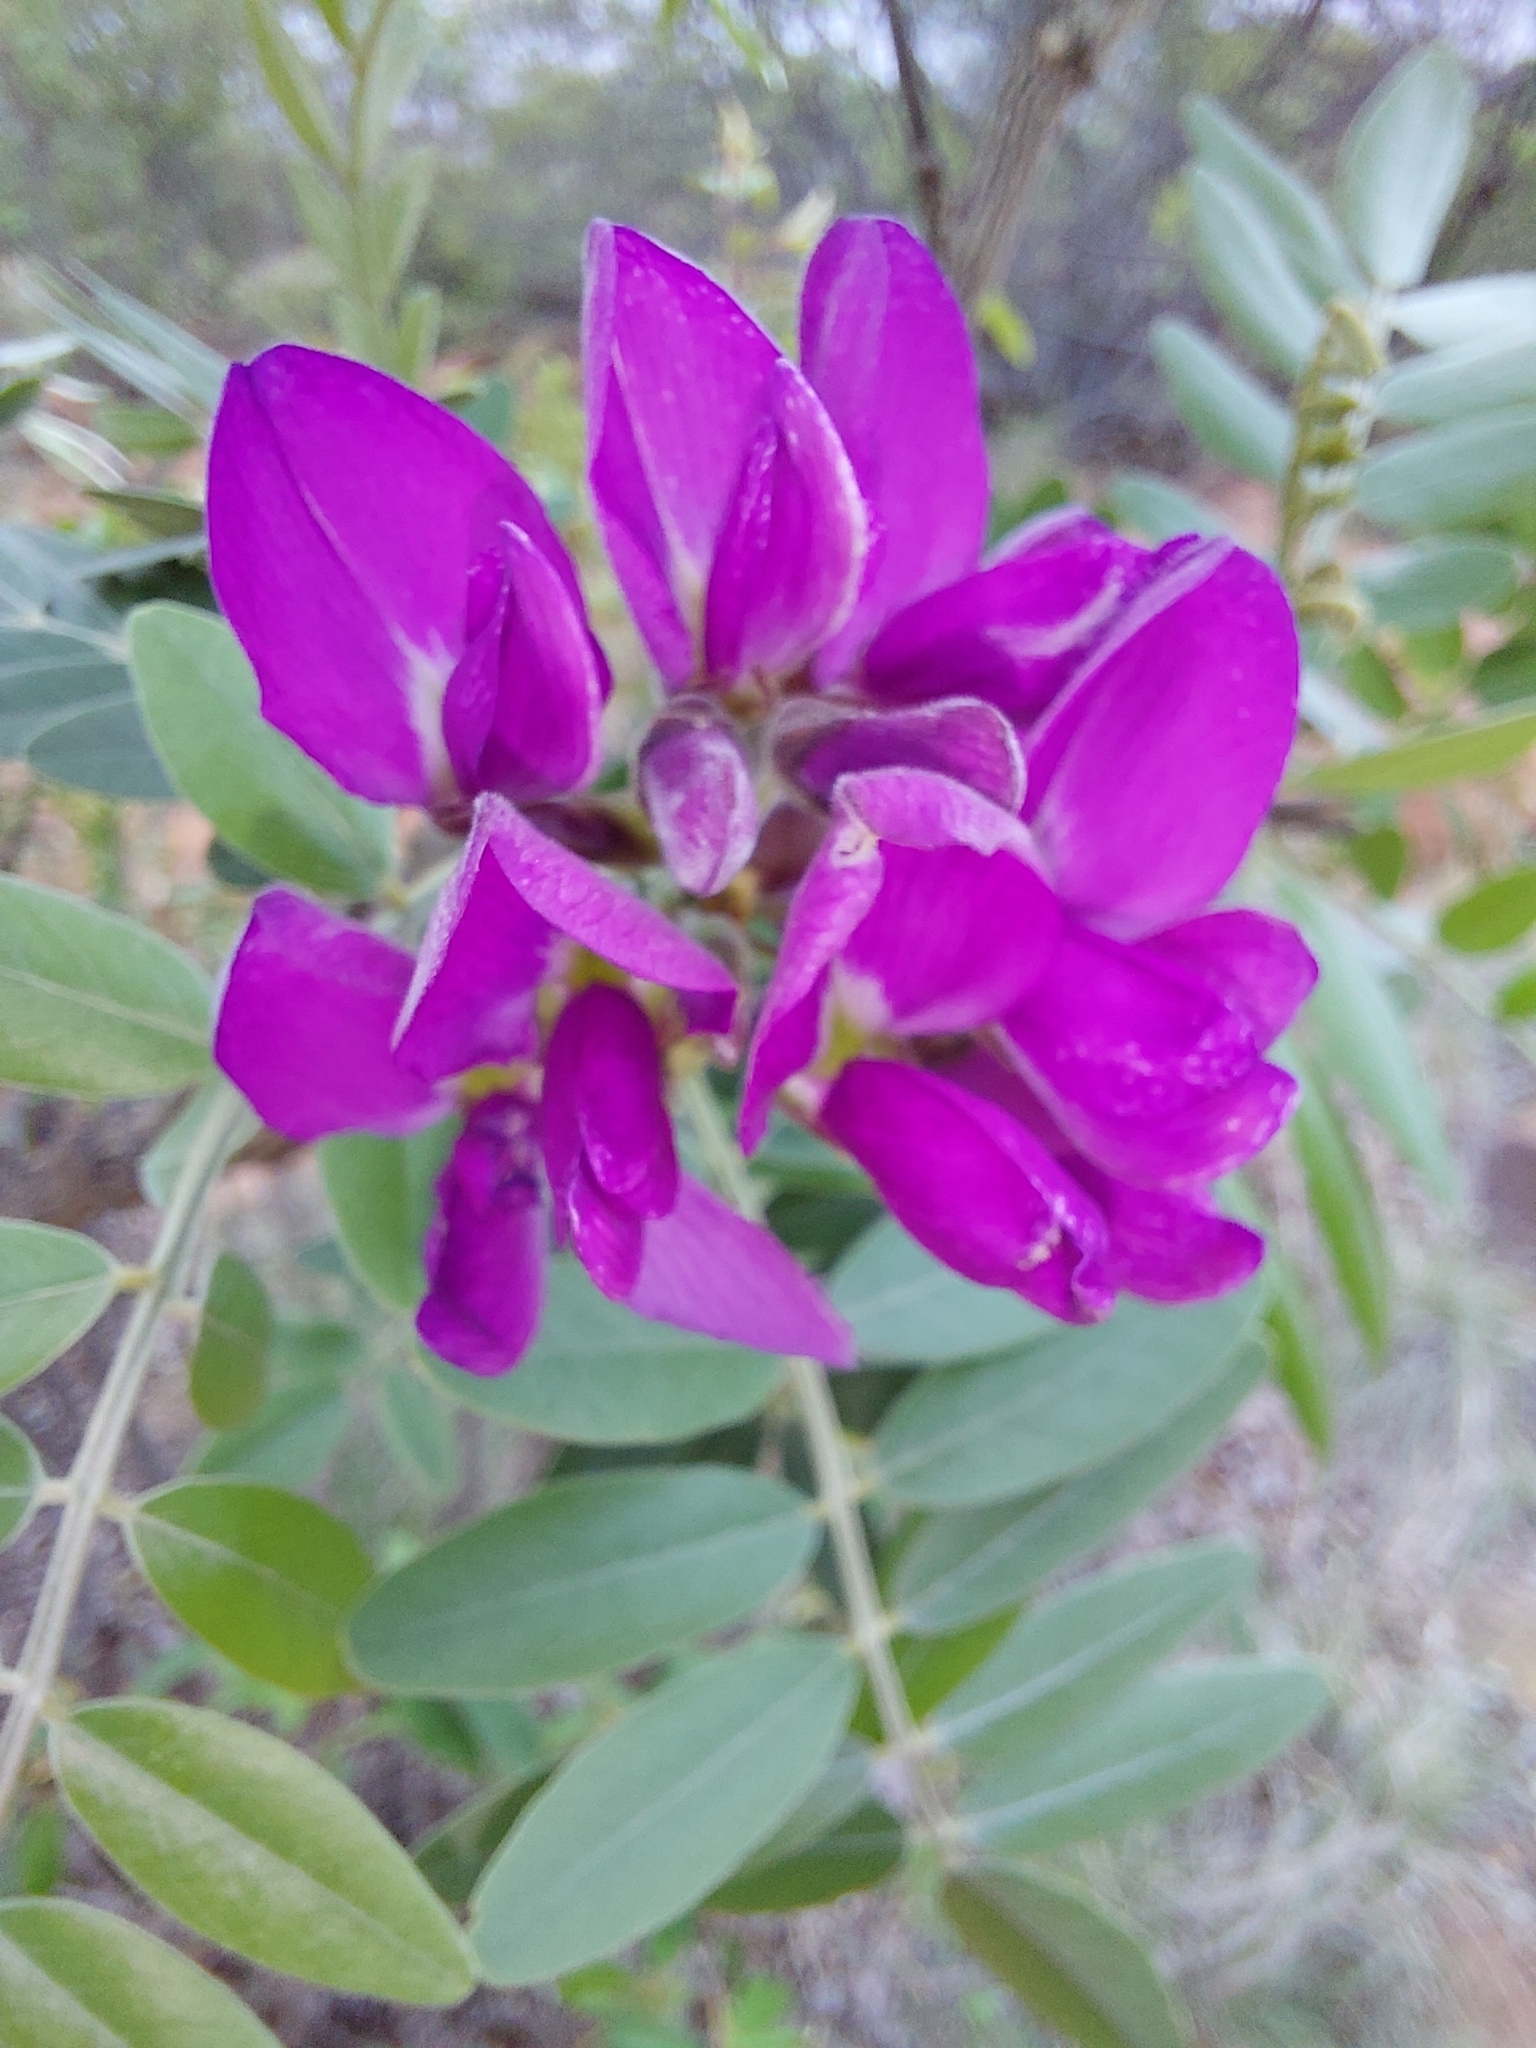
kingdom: Plantae
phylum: Tracheophyta
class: Magnoliopsida
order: Fabales
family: Fabaceae
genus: Mundulea
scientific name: Mundulea sericea
